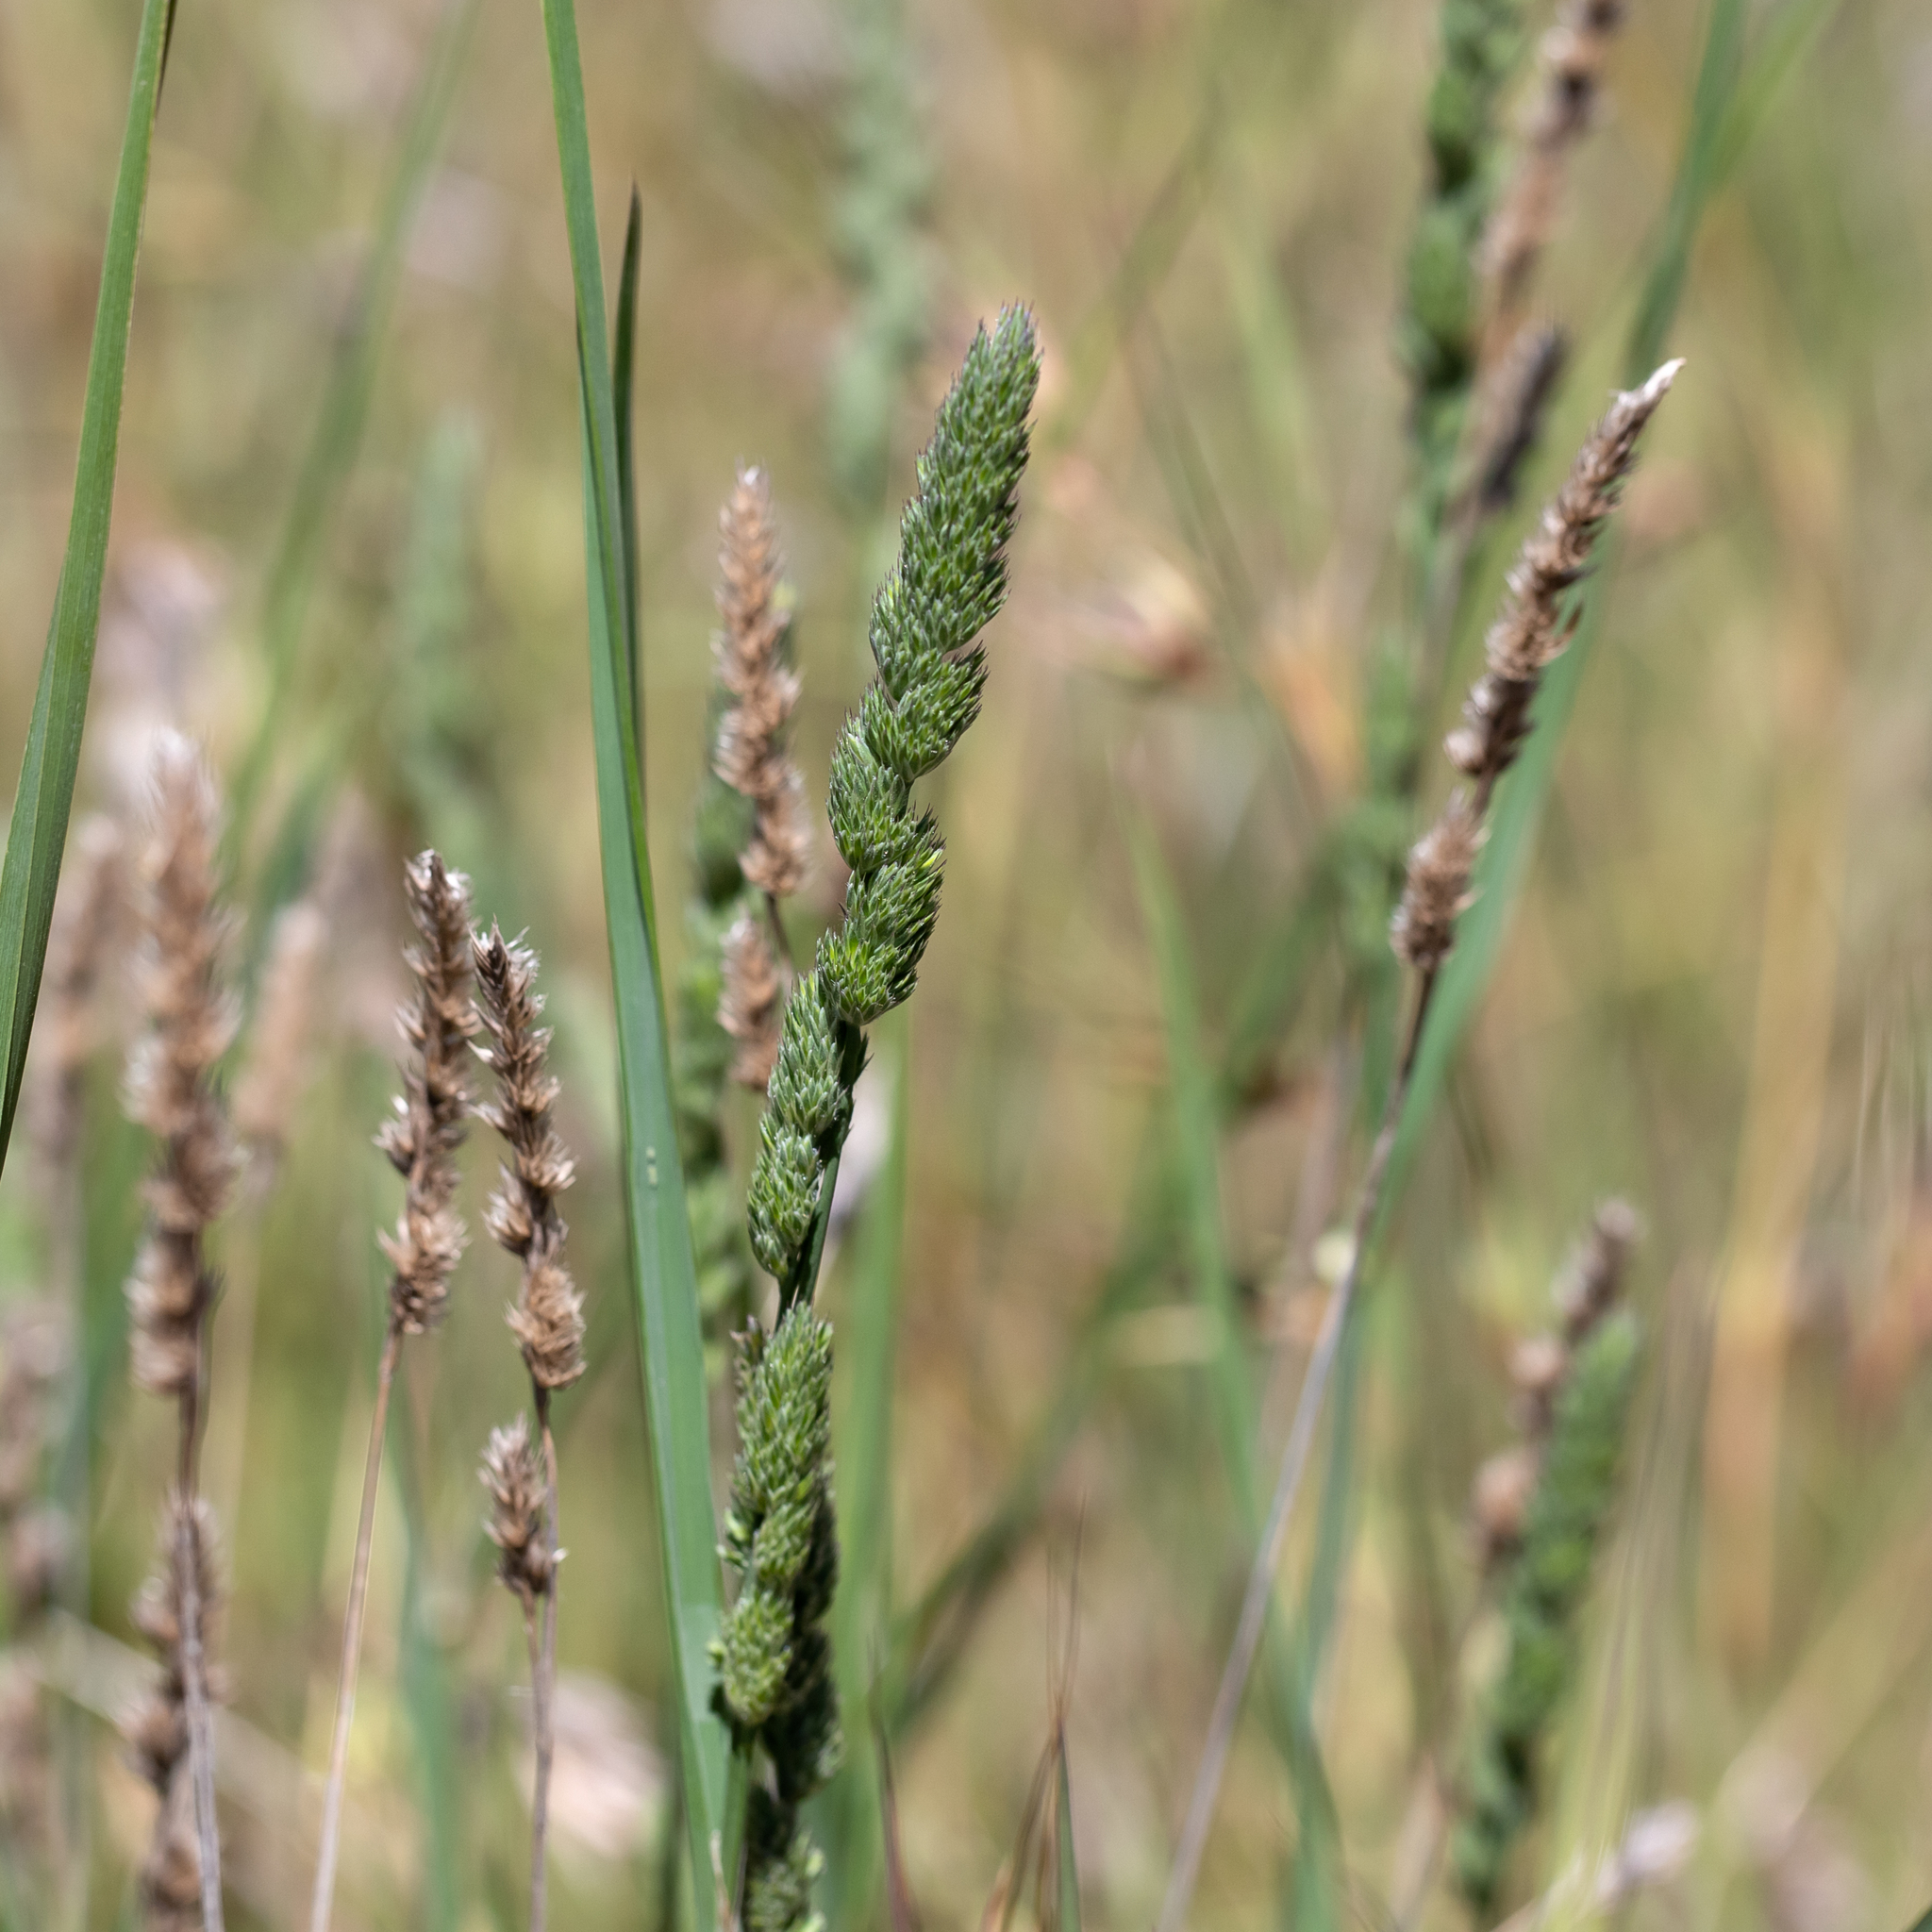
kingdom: Plantae
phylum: Tracheophyta
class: Liliopsida
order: Poales
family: Poaceae
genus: Dactylis
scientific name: Dactylis glomerata
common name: Orchardgrass
